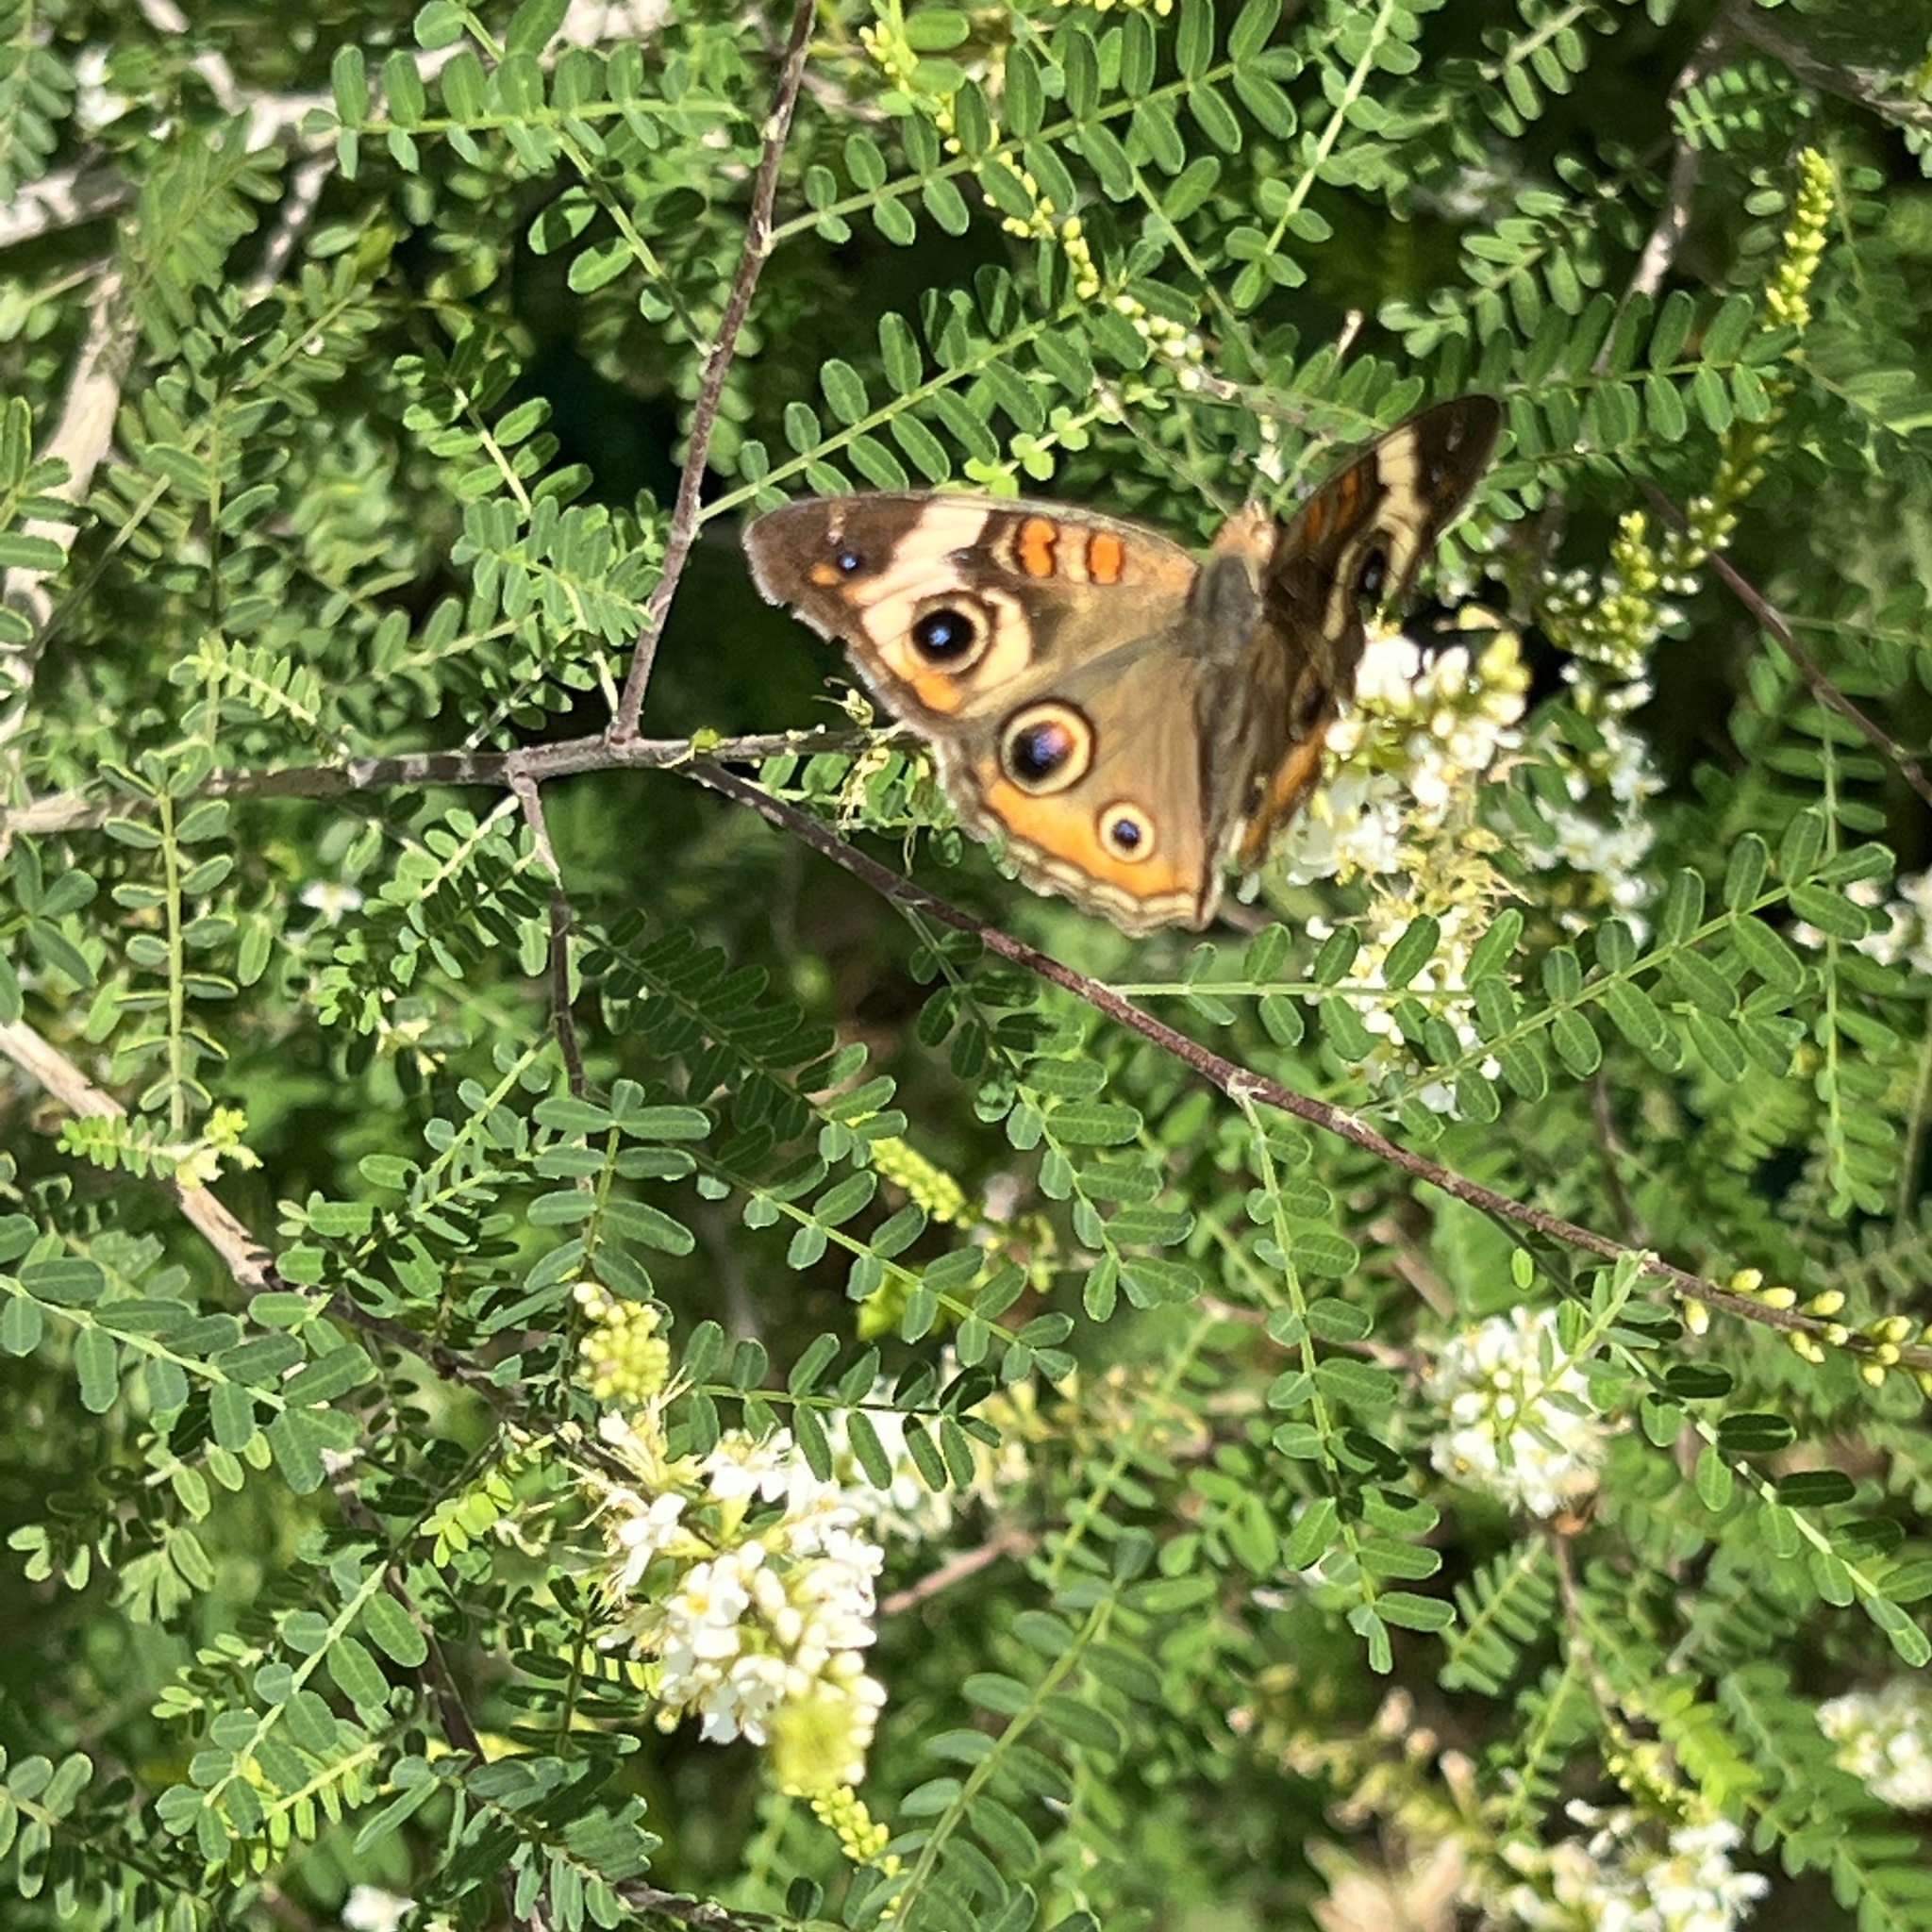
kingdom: Animalia
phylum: Arthropoda
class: Insecta
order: Lepidoptera
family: Nymphalidae
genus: Junonia
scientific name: Junonia coenia
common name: Common buckeye
